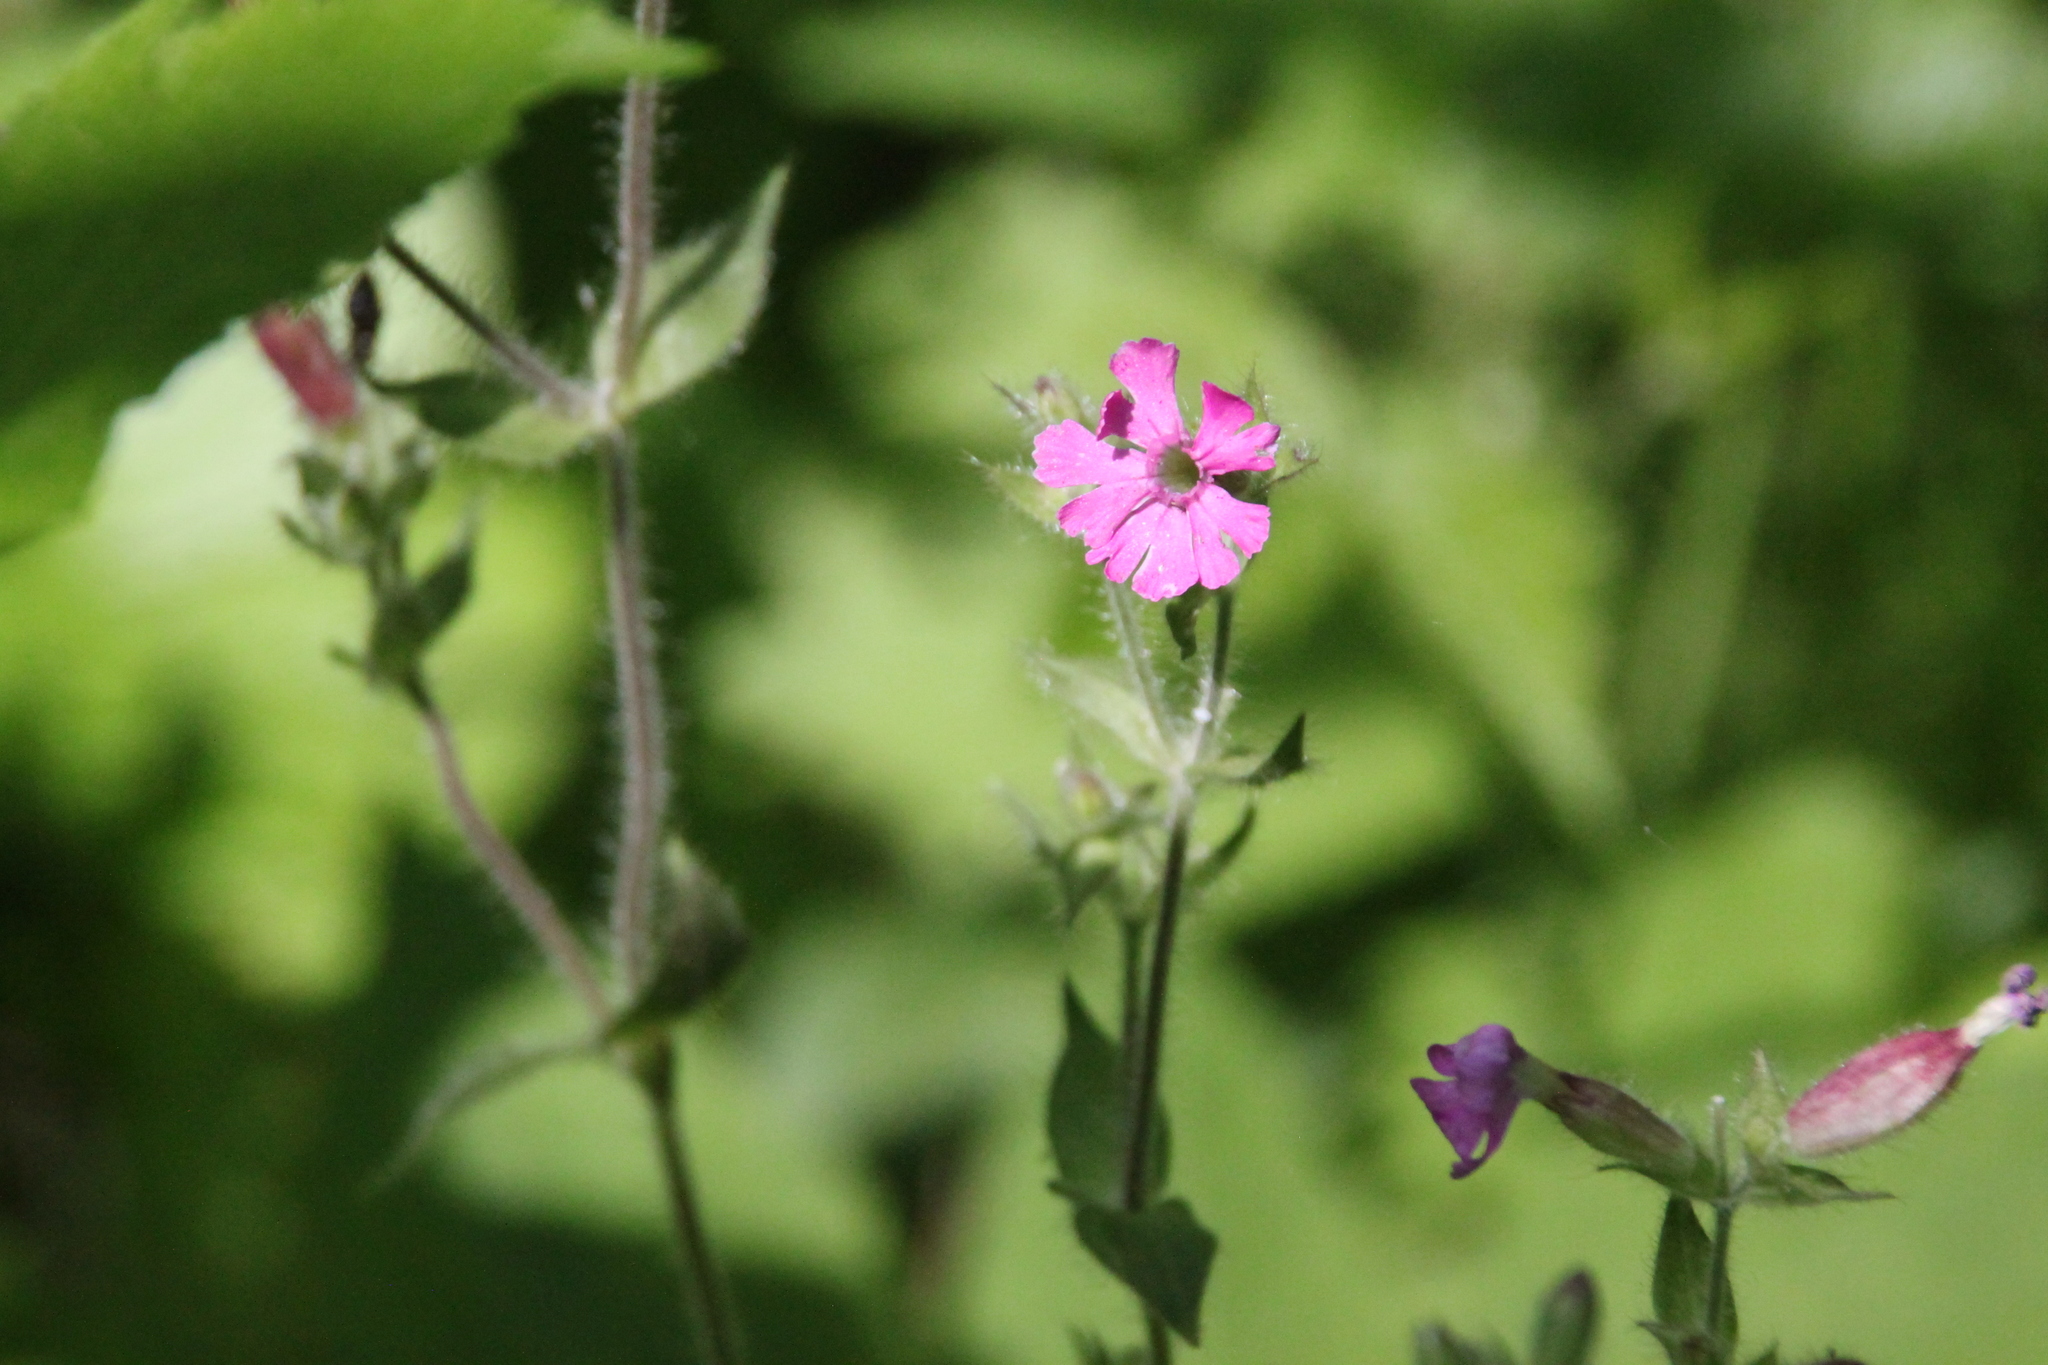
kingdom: Plantae
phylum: Tracheophyta
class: Magnoliopsida
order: Caryophyllales
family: Caryophyllaceae
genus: Silene
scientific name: Silene dioica
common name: Red campion
